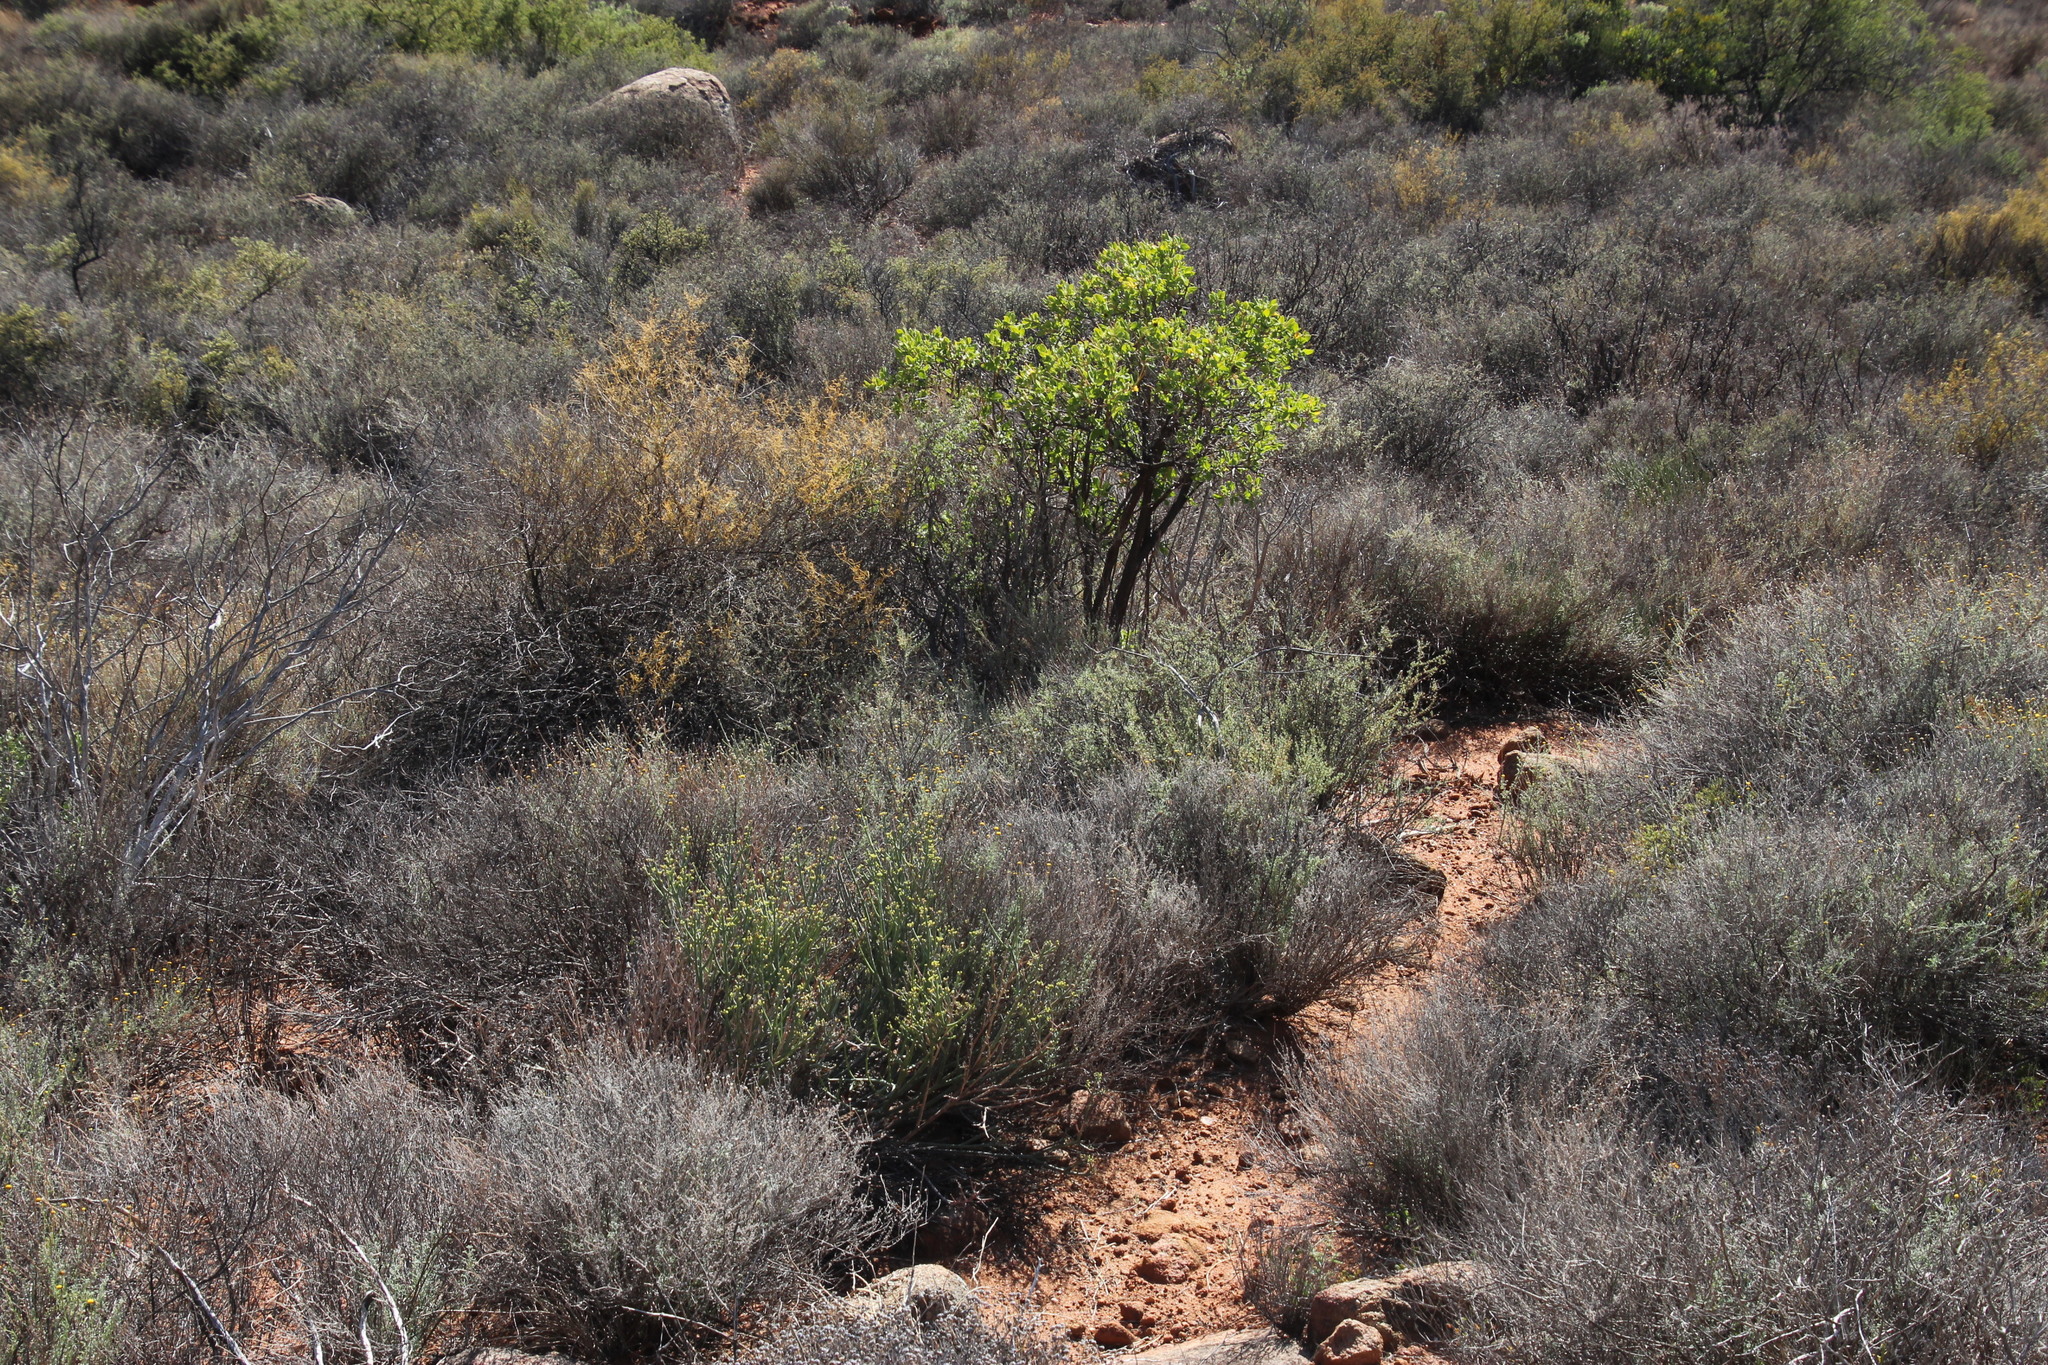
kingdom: Plantae
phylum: Tracheophyta
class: Magnoliopsida
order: Malpighiales
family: Euphorbiaceae
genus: Euphorbia
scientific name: Euphorbia burmanni
